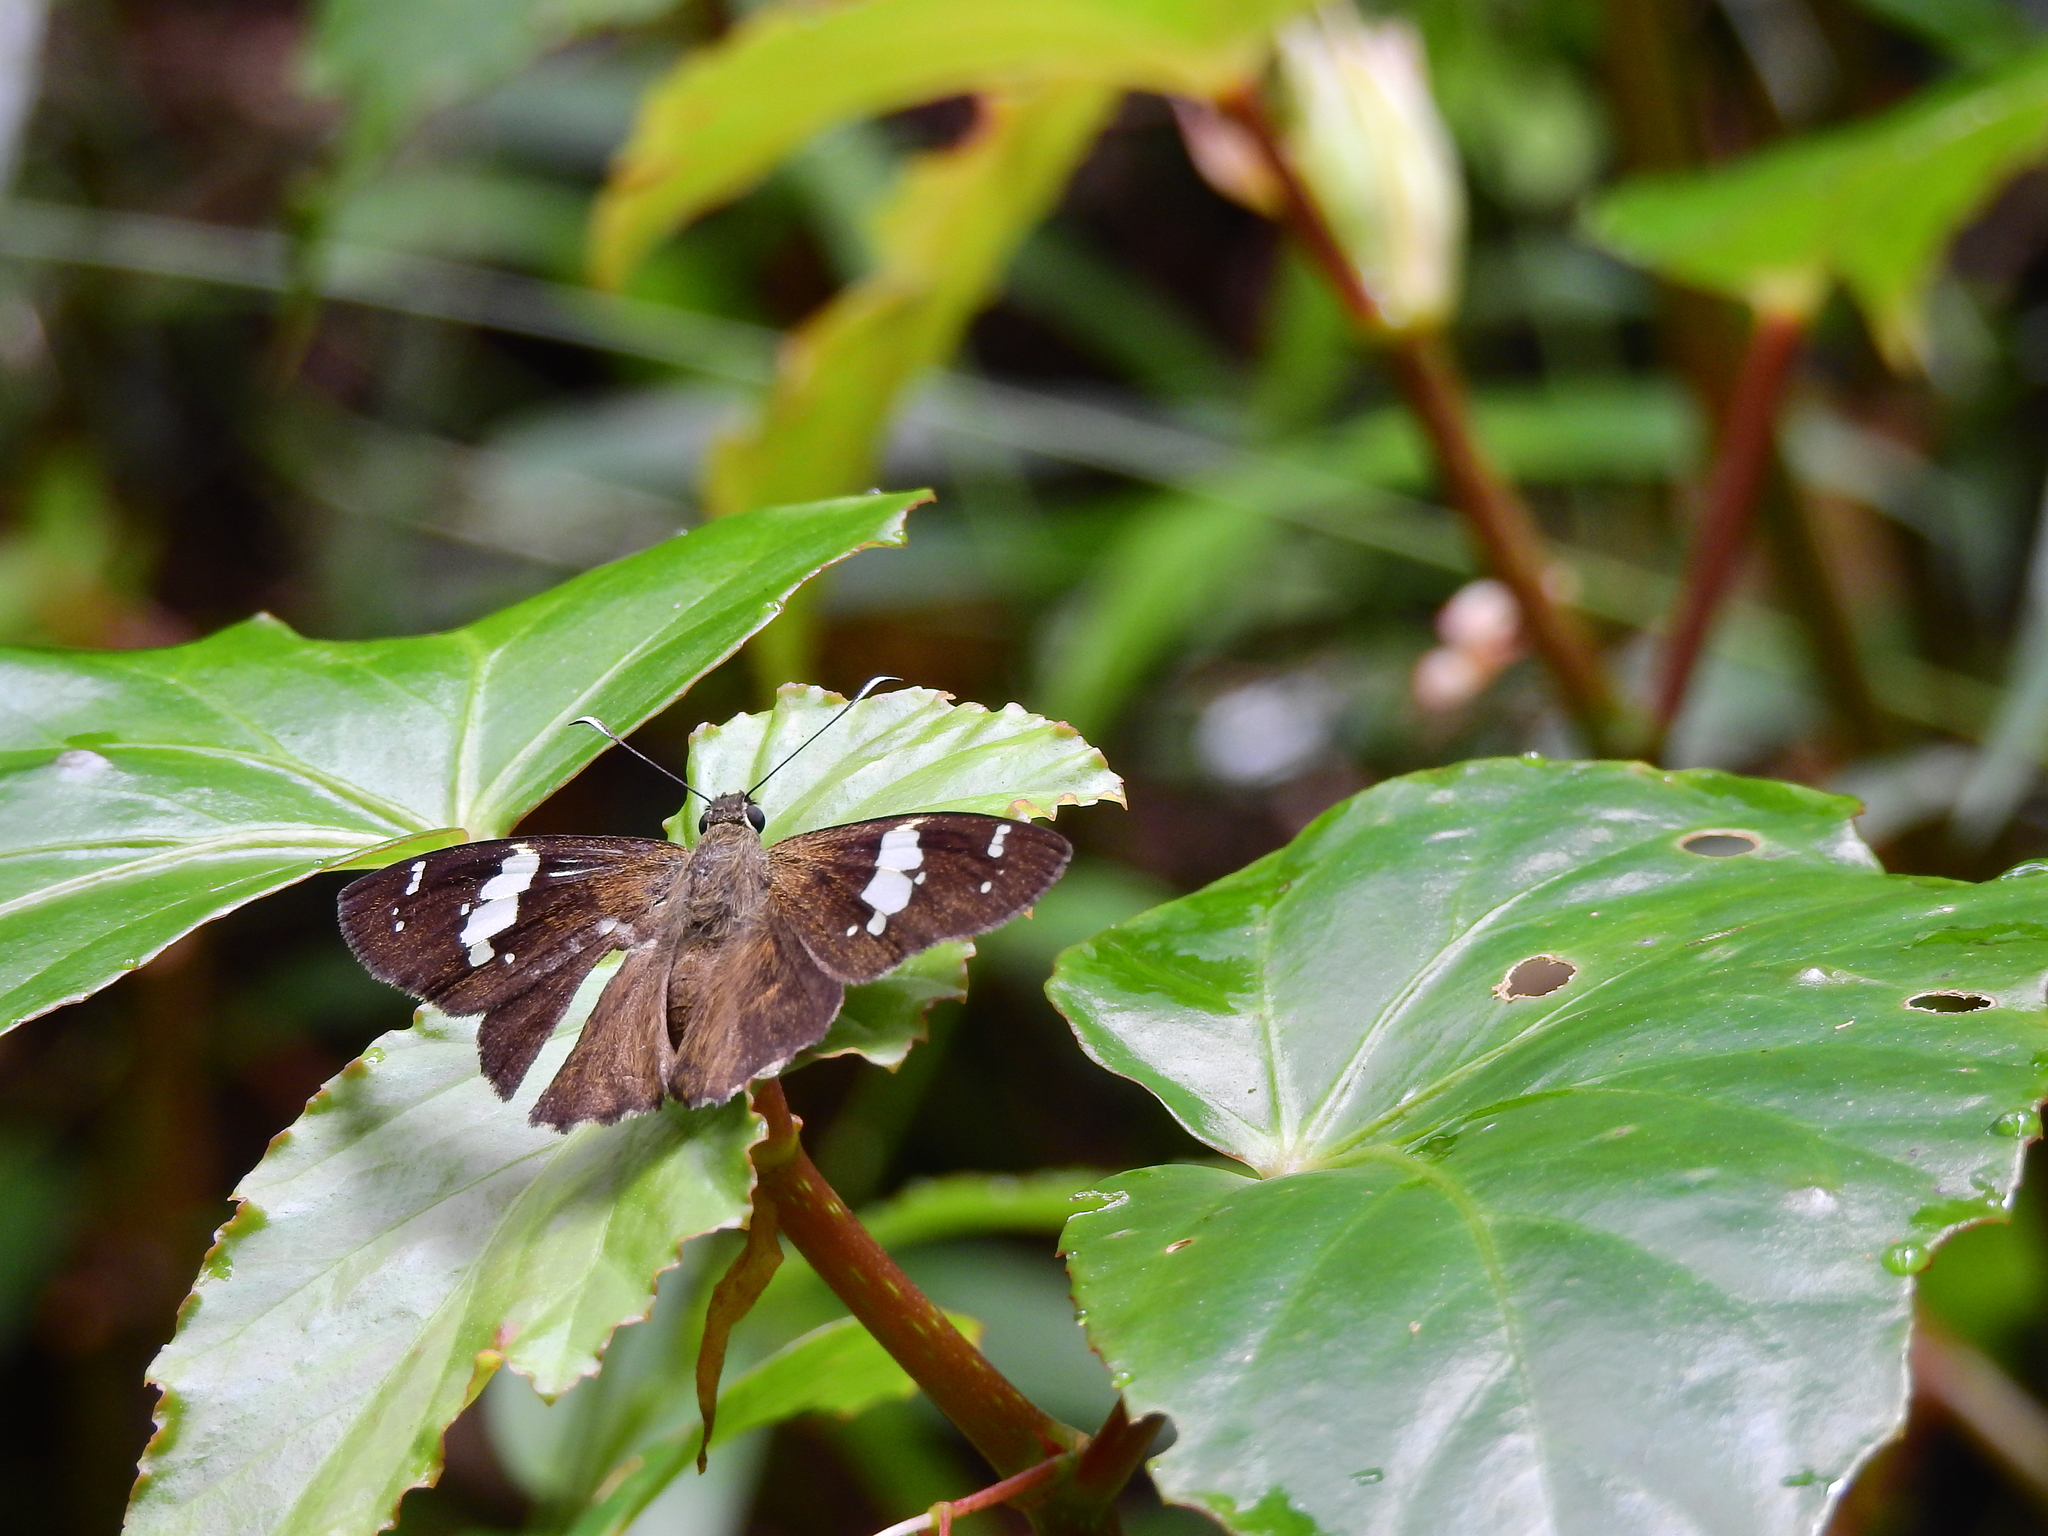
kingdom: Animalia
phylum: Arthropoda
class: Insecta
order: Lepidoptera
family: Hesperiidae
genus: Celaenorrhinus
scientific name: Celaenorrhinus leucocera
